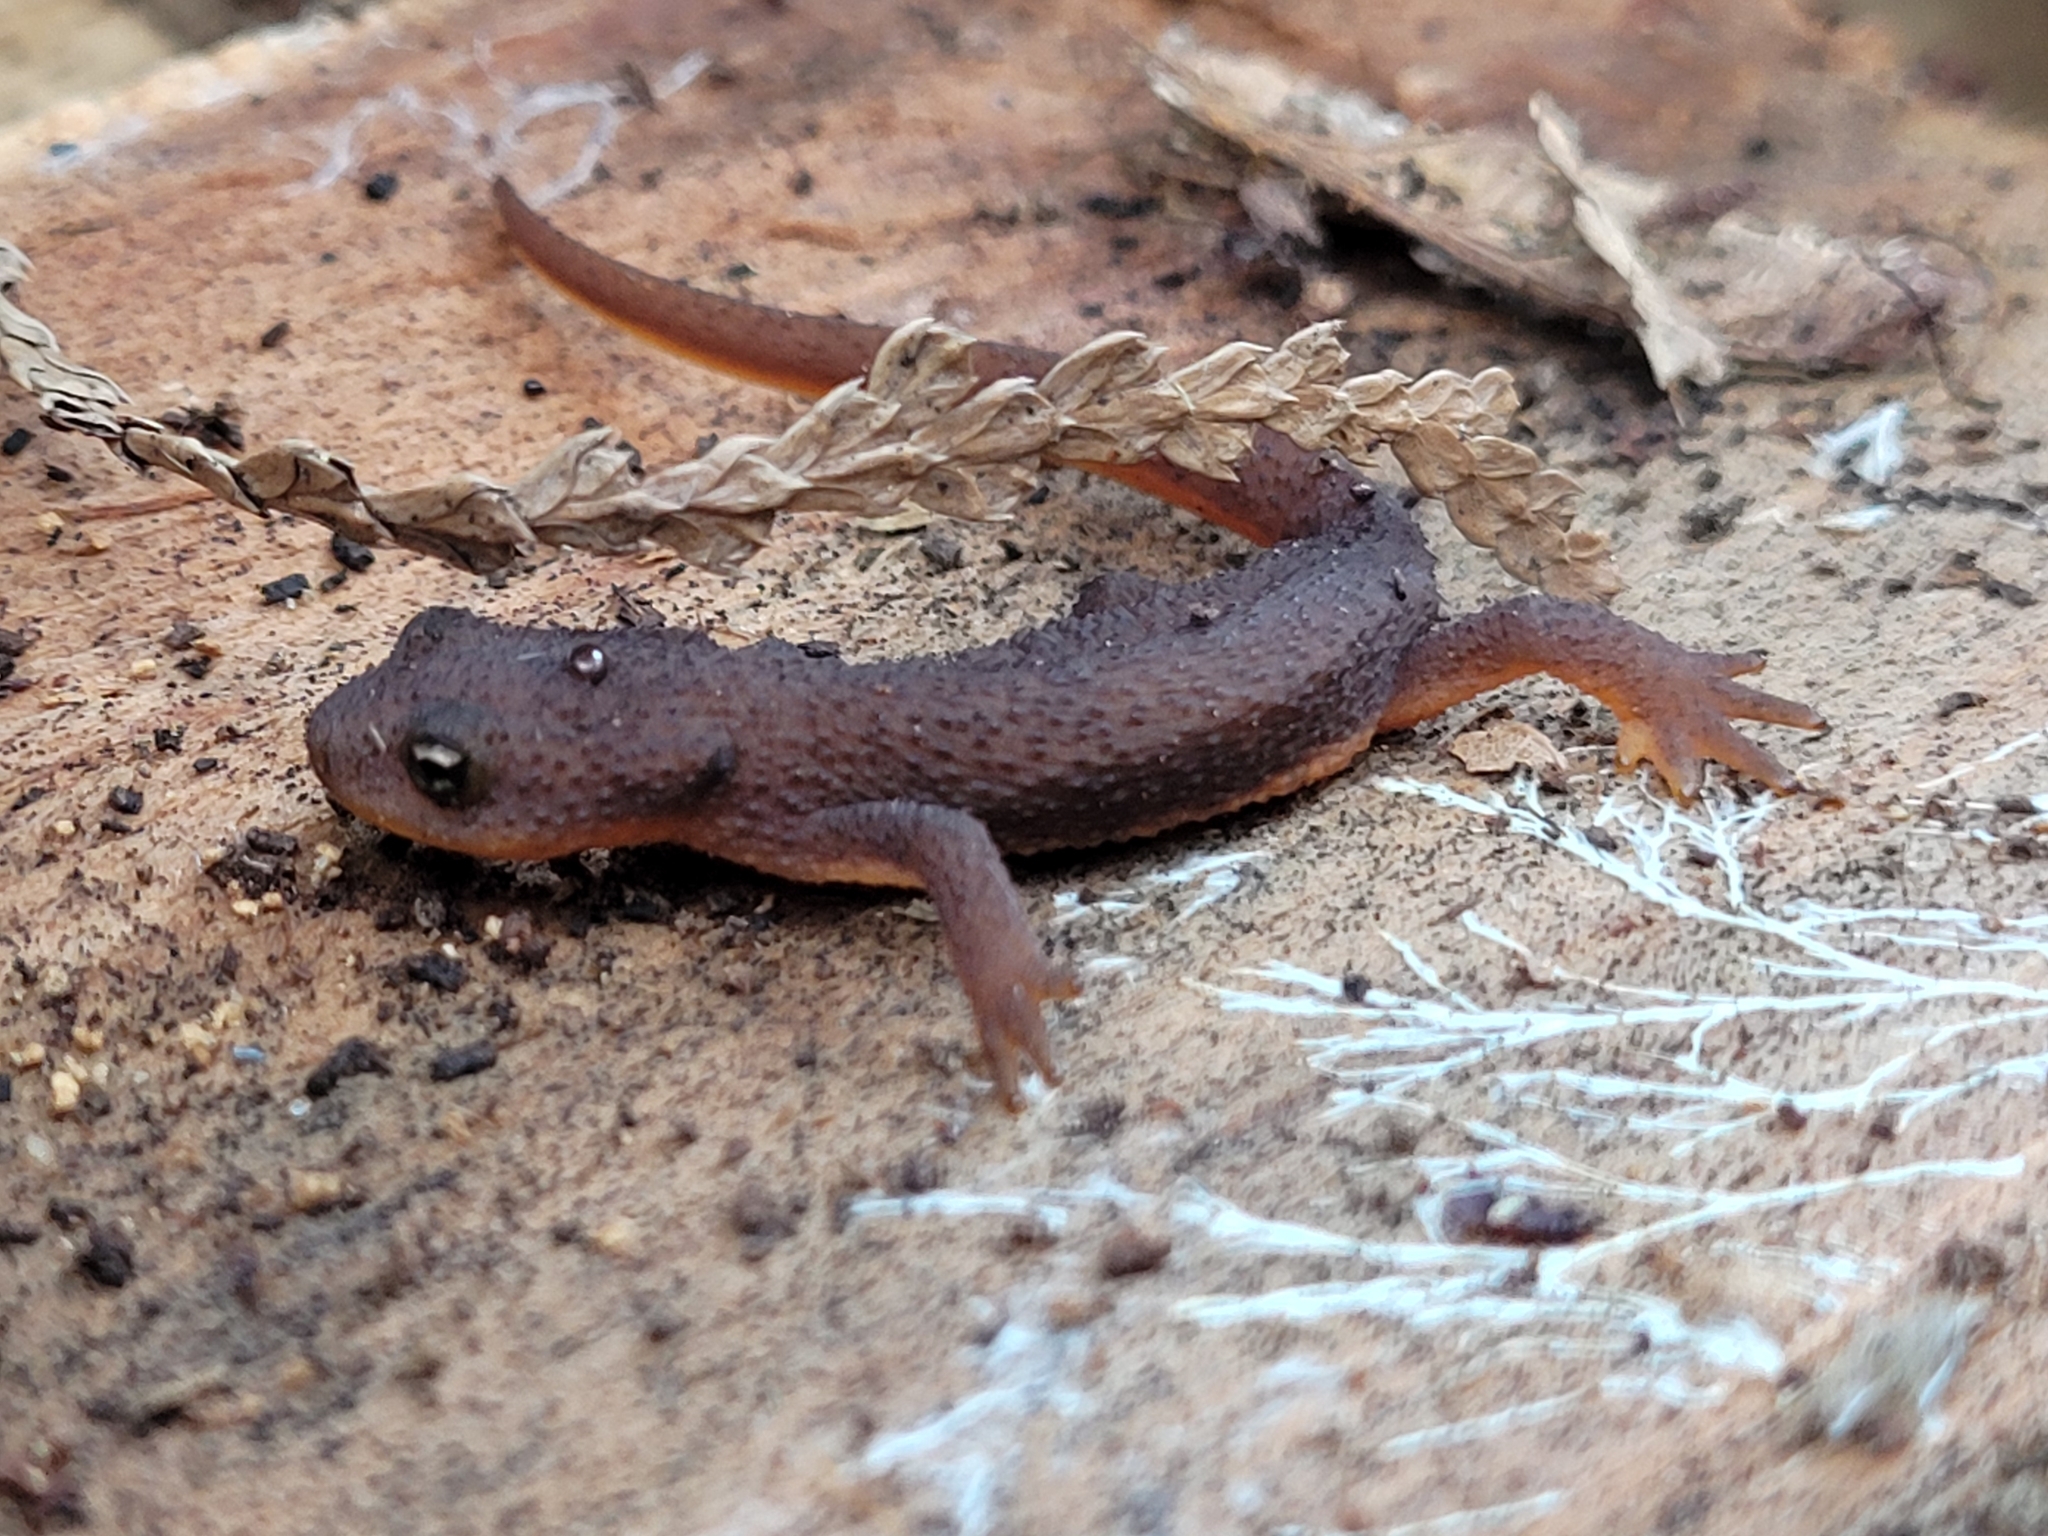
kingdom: Animalia
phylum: Chordata
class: Amphibia
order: Caudata
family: Salamandridae
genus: Taricha
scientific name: Taricha granulosa
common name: Roughskin newt
